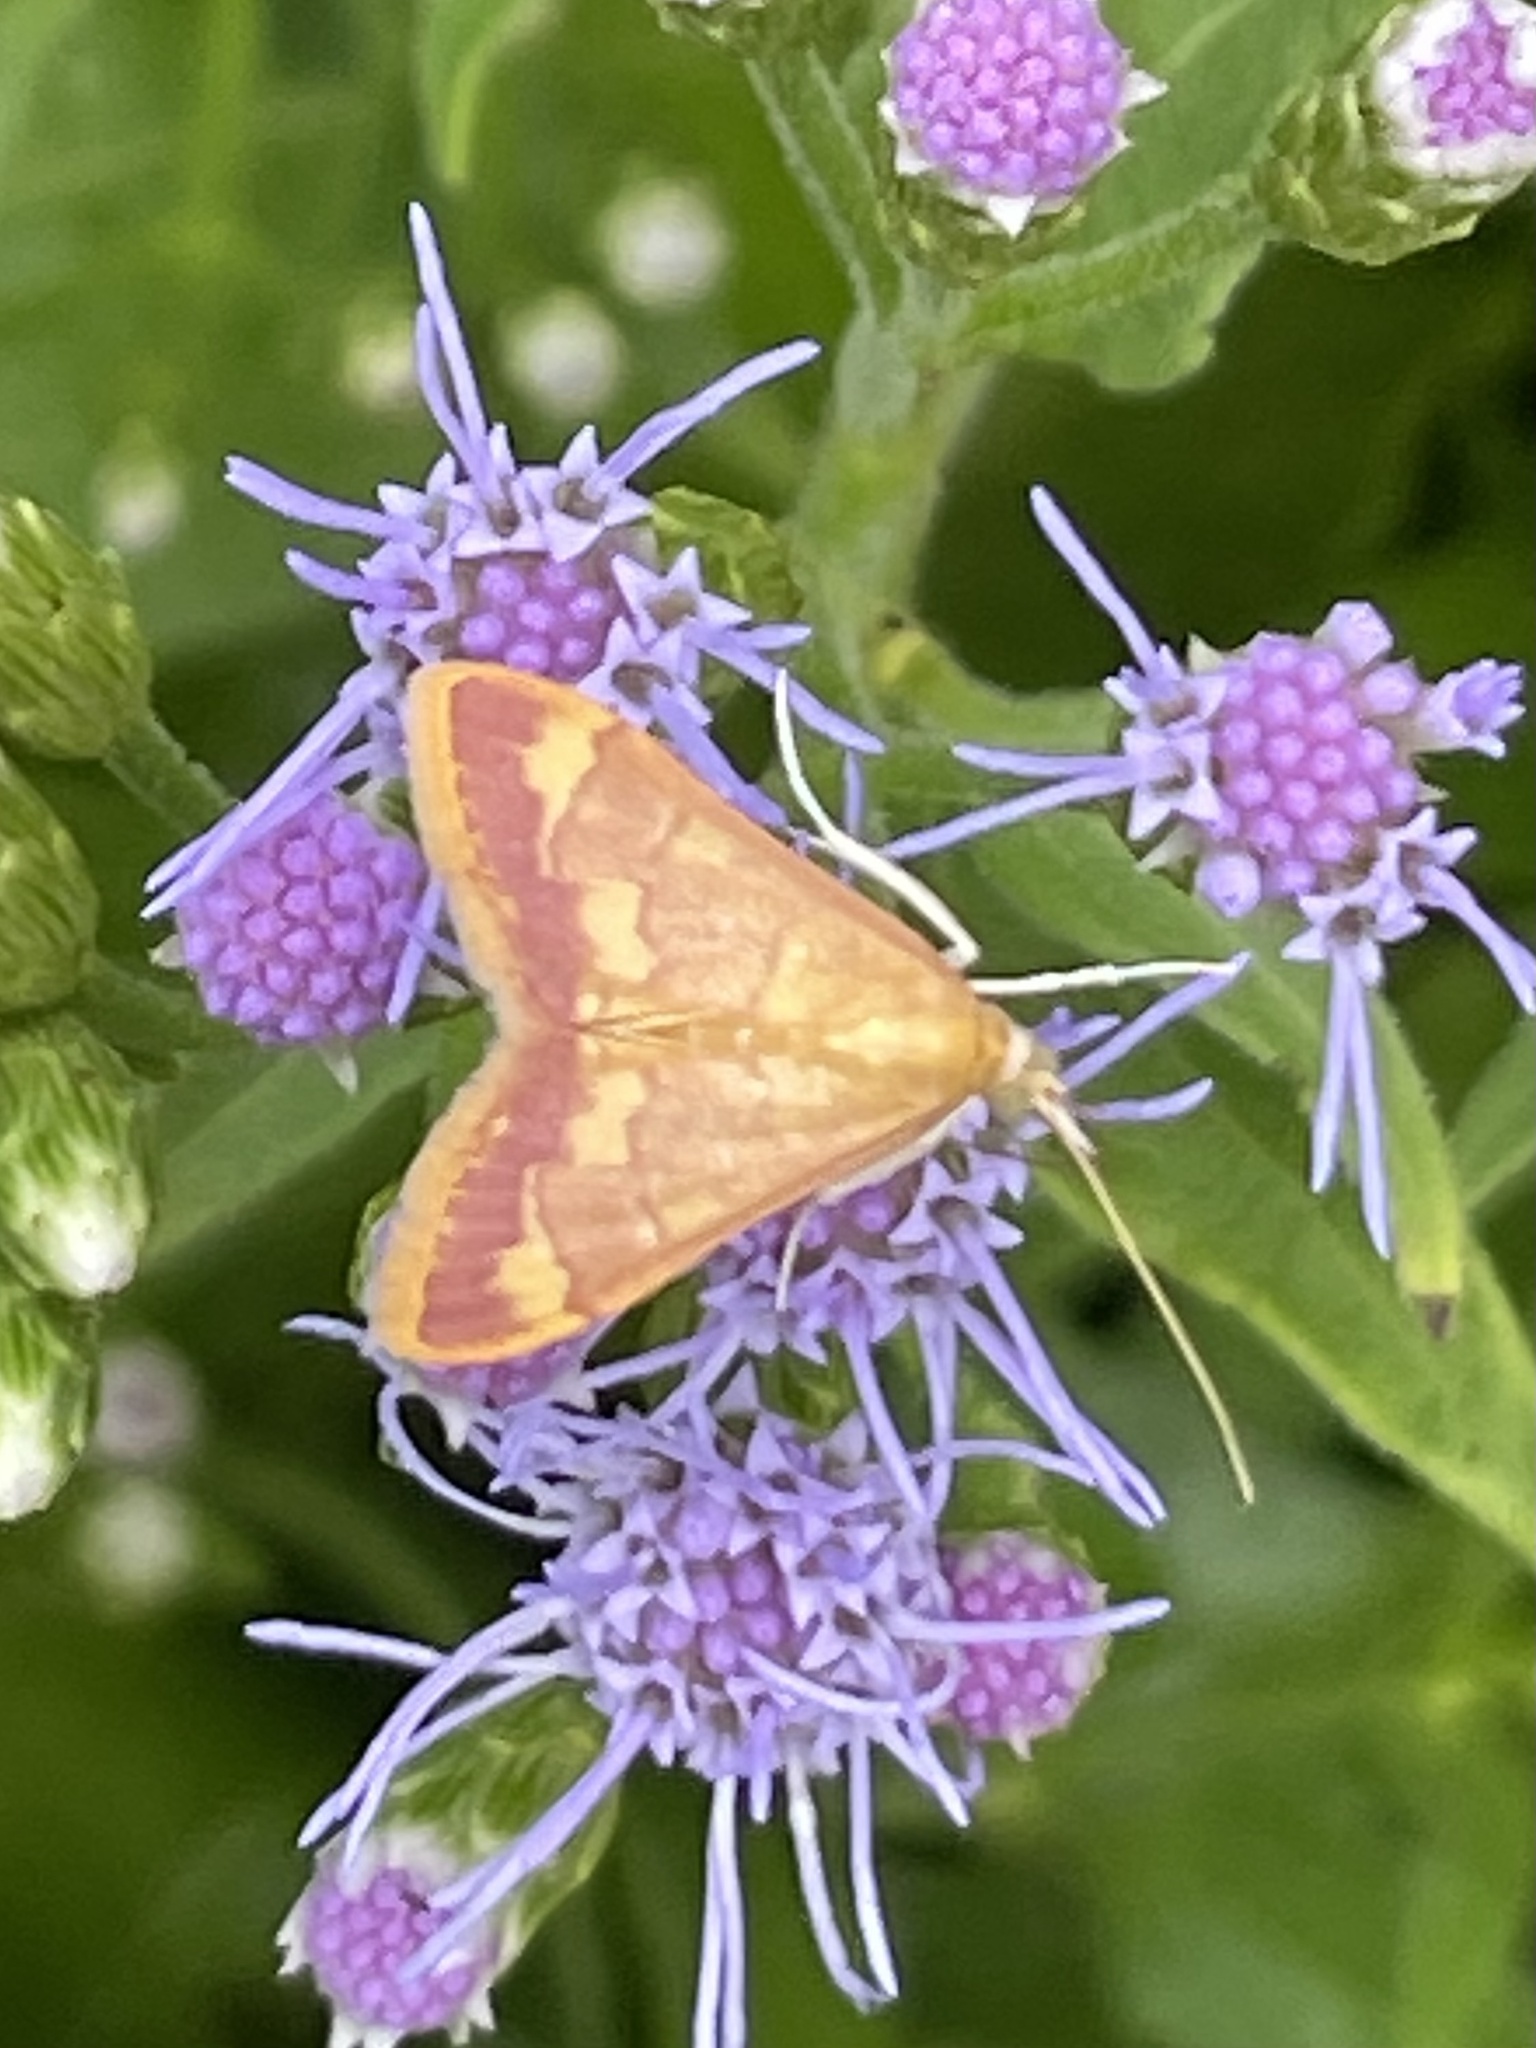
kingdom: Animalia
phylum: Arthropoda
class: Insecta
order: Lepidoptera
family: Crambidae
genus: Pyrausta
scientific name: Pyrausta pseudonythesalis
